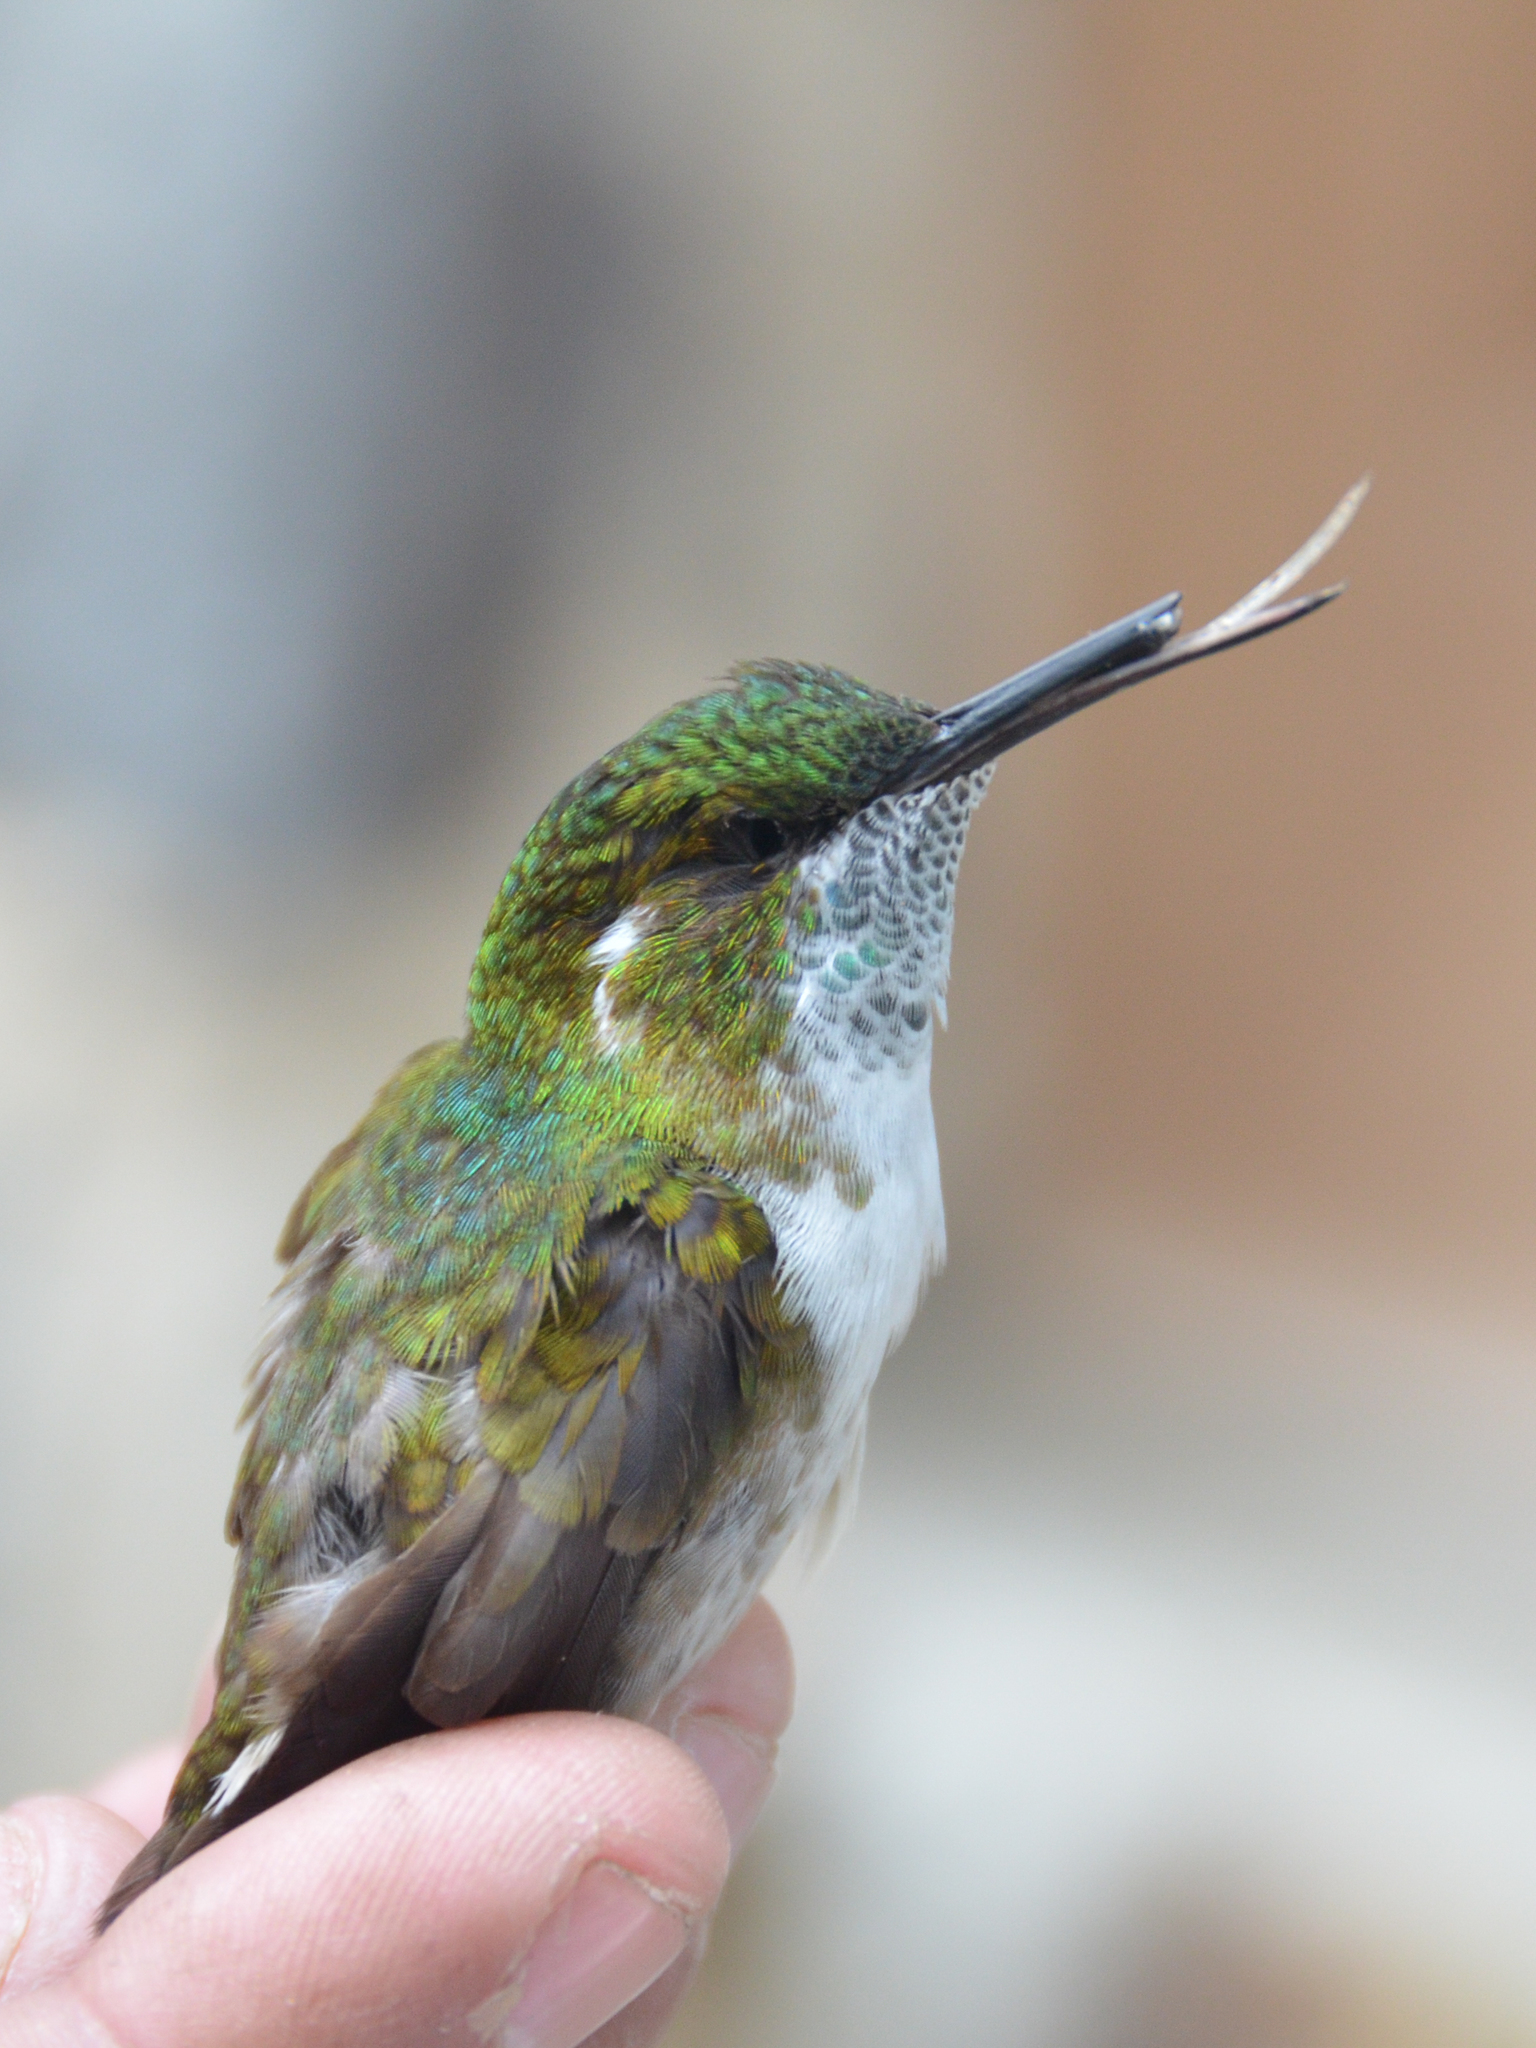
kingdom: Animalia
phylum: Chordata
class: Aves
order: Apodiformes
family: Trochilidae
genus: Lampornis
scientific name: Lampornis viridipallens
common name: Green-throated mountain-gem
